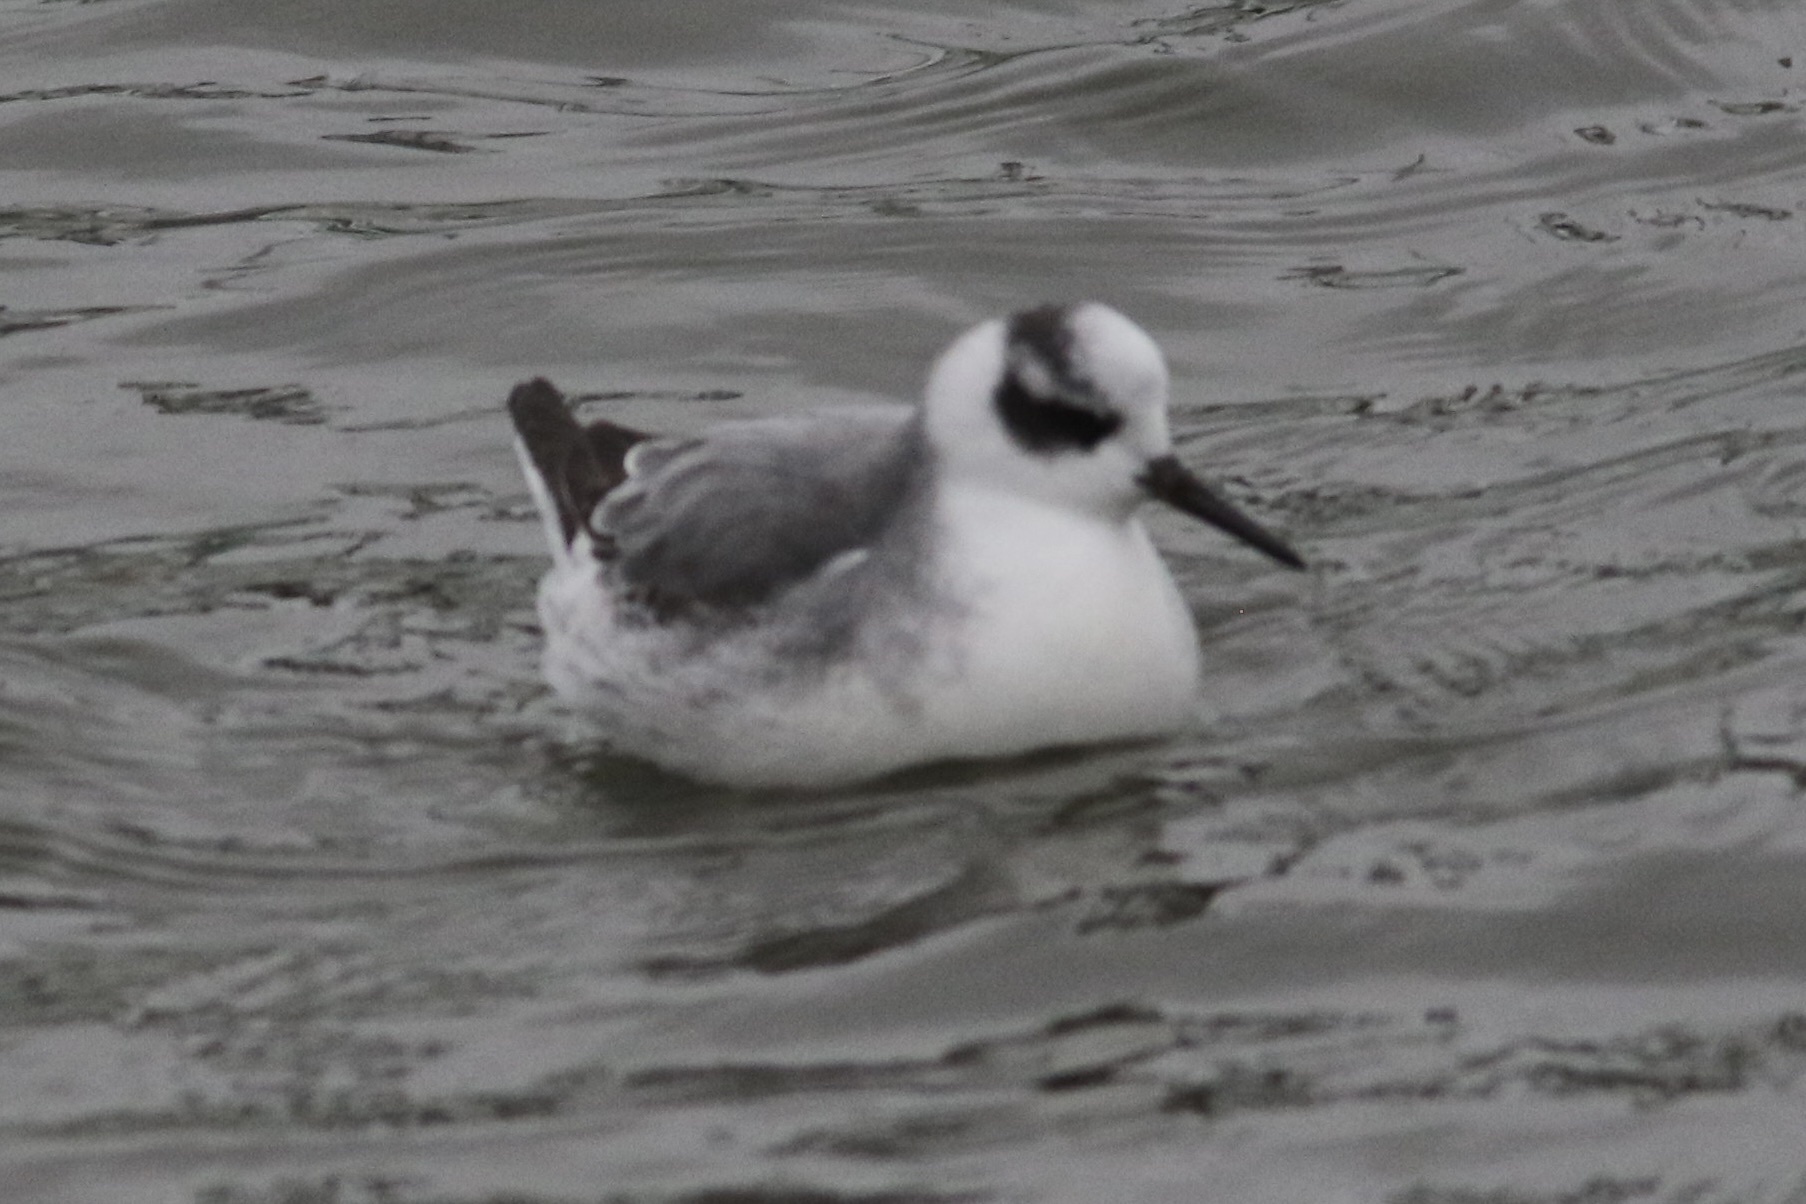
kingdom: Animalia
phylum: Chordata
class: Aves
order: Charadriiformes
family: Scolopacidae
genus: Phalaropus
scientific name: Phalaropus fulicarius
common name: Red phalarope
